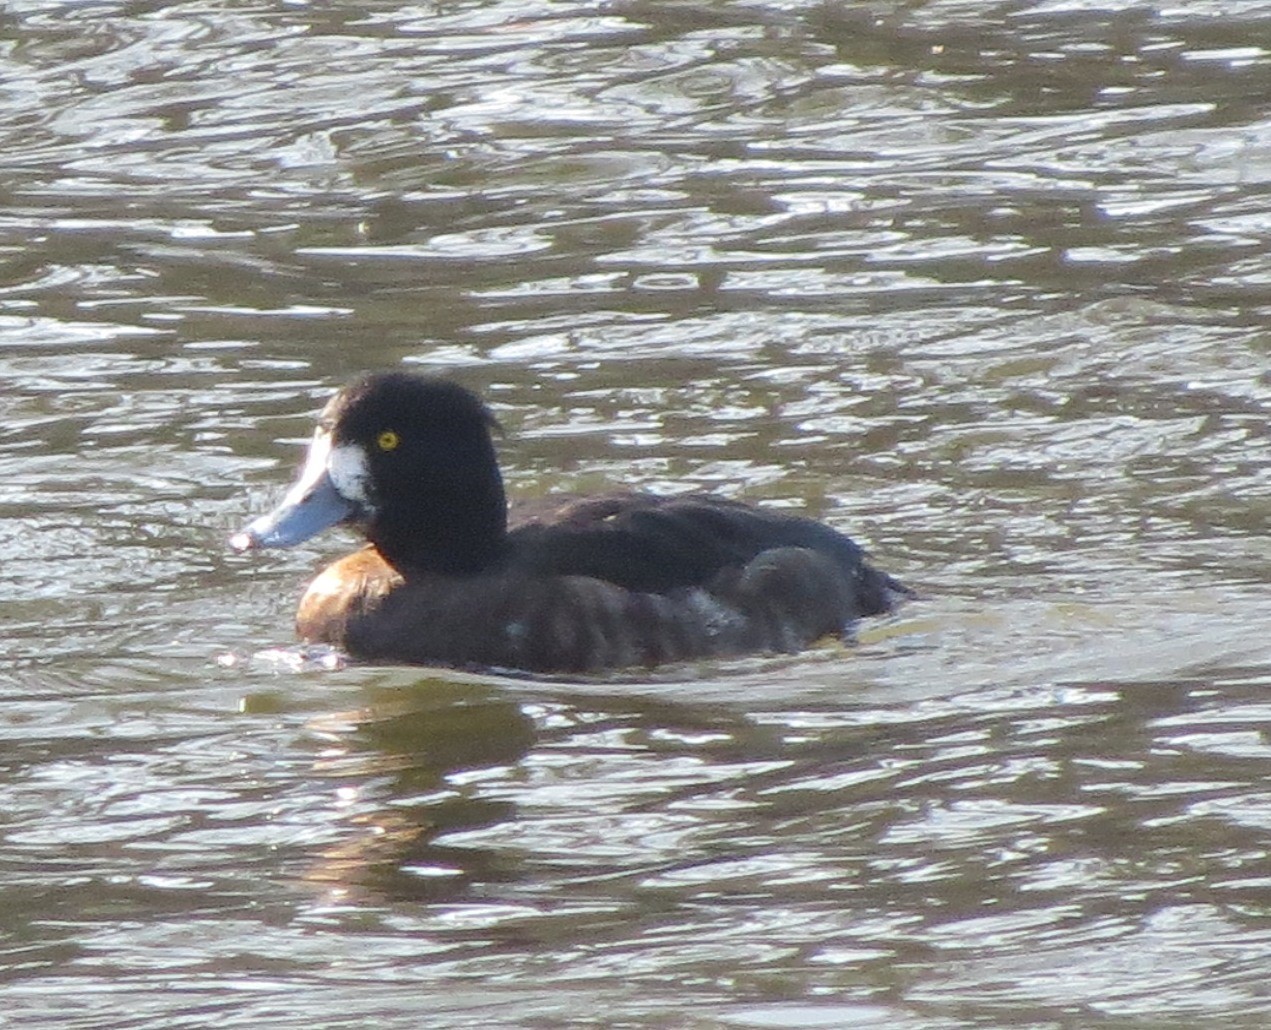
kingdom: Animalia
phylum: Chordata
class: Aves
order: Anseriformes
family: Anatidae
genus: Aythya
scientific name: Aythya fuligula
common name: Tufted duck
